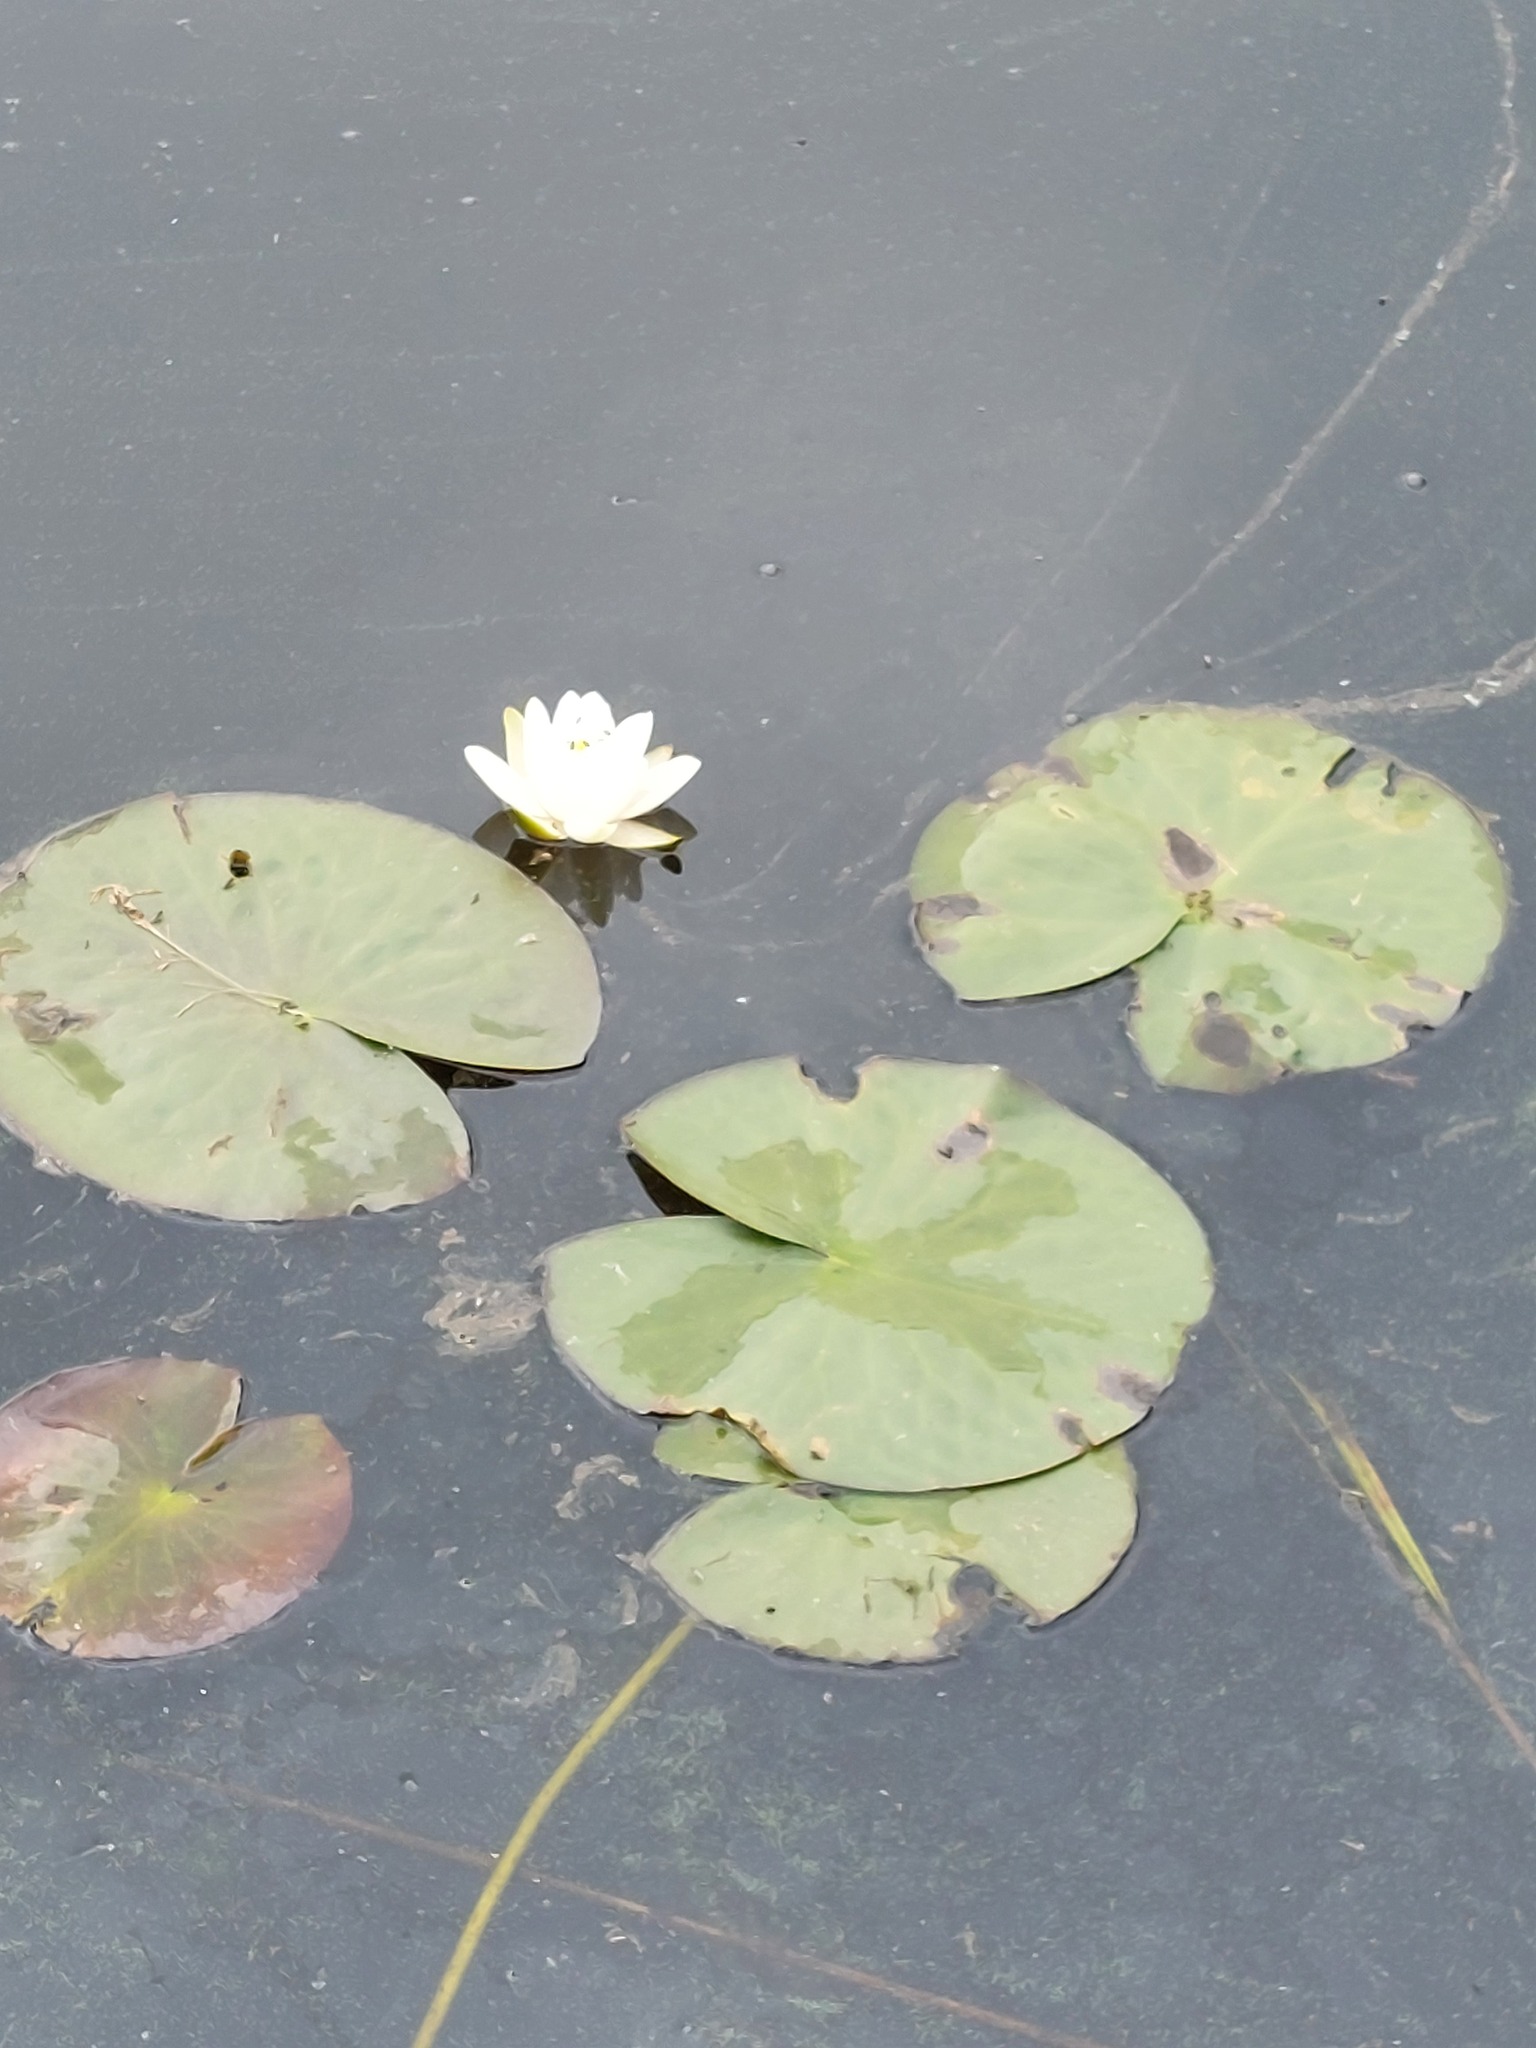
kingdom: Plantae
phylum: Tracheophyta
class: Magnoliopsida
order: Nymphaeales
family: Nymphaeaceae
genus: Nymphaea
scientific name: Nymphaea alba
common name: White water-lily
